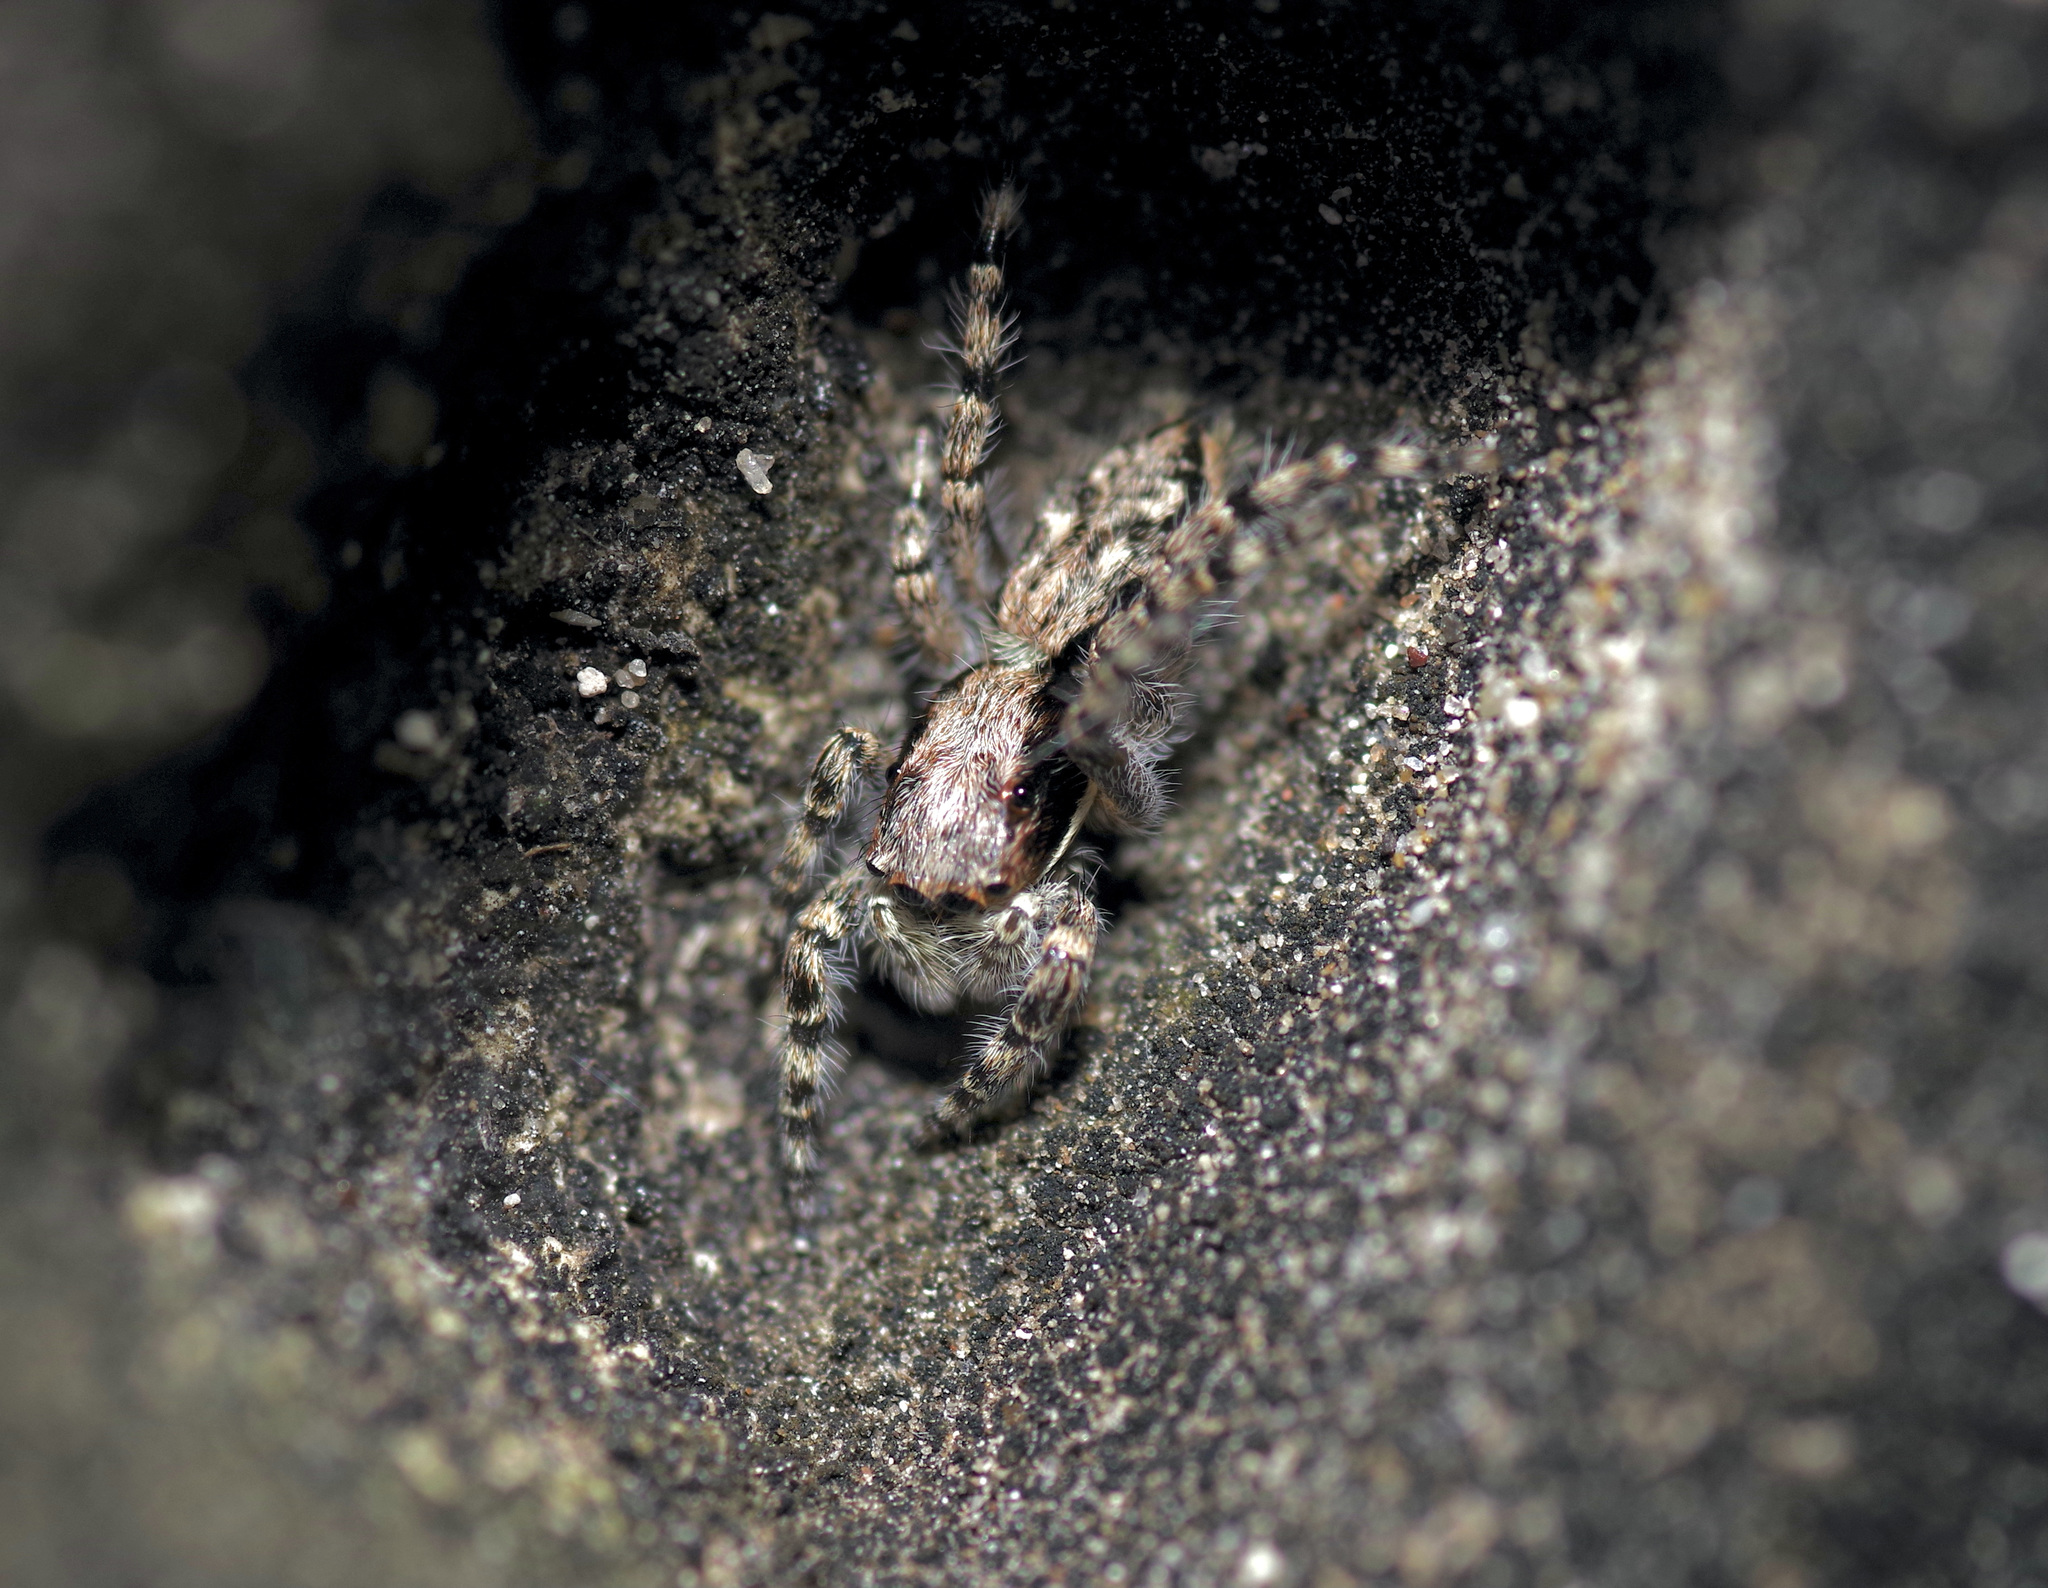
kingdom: Animalia
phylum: Arthropoda
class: Arachnida
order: Araneae
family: Salticidae
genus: Menemerus
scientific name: Menemerus bivittatus
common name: Gray wall jumper
